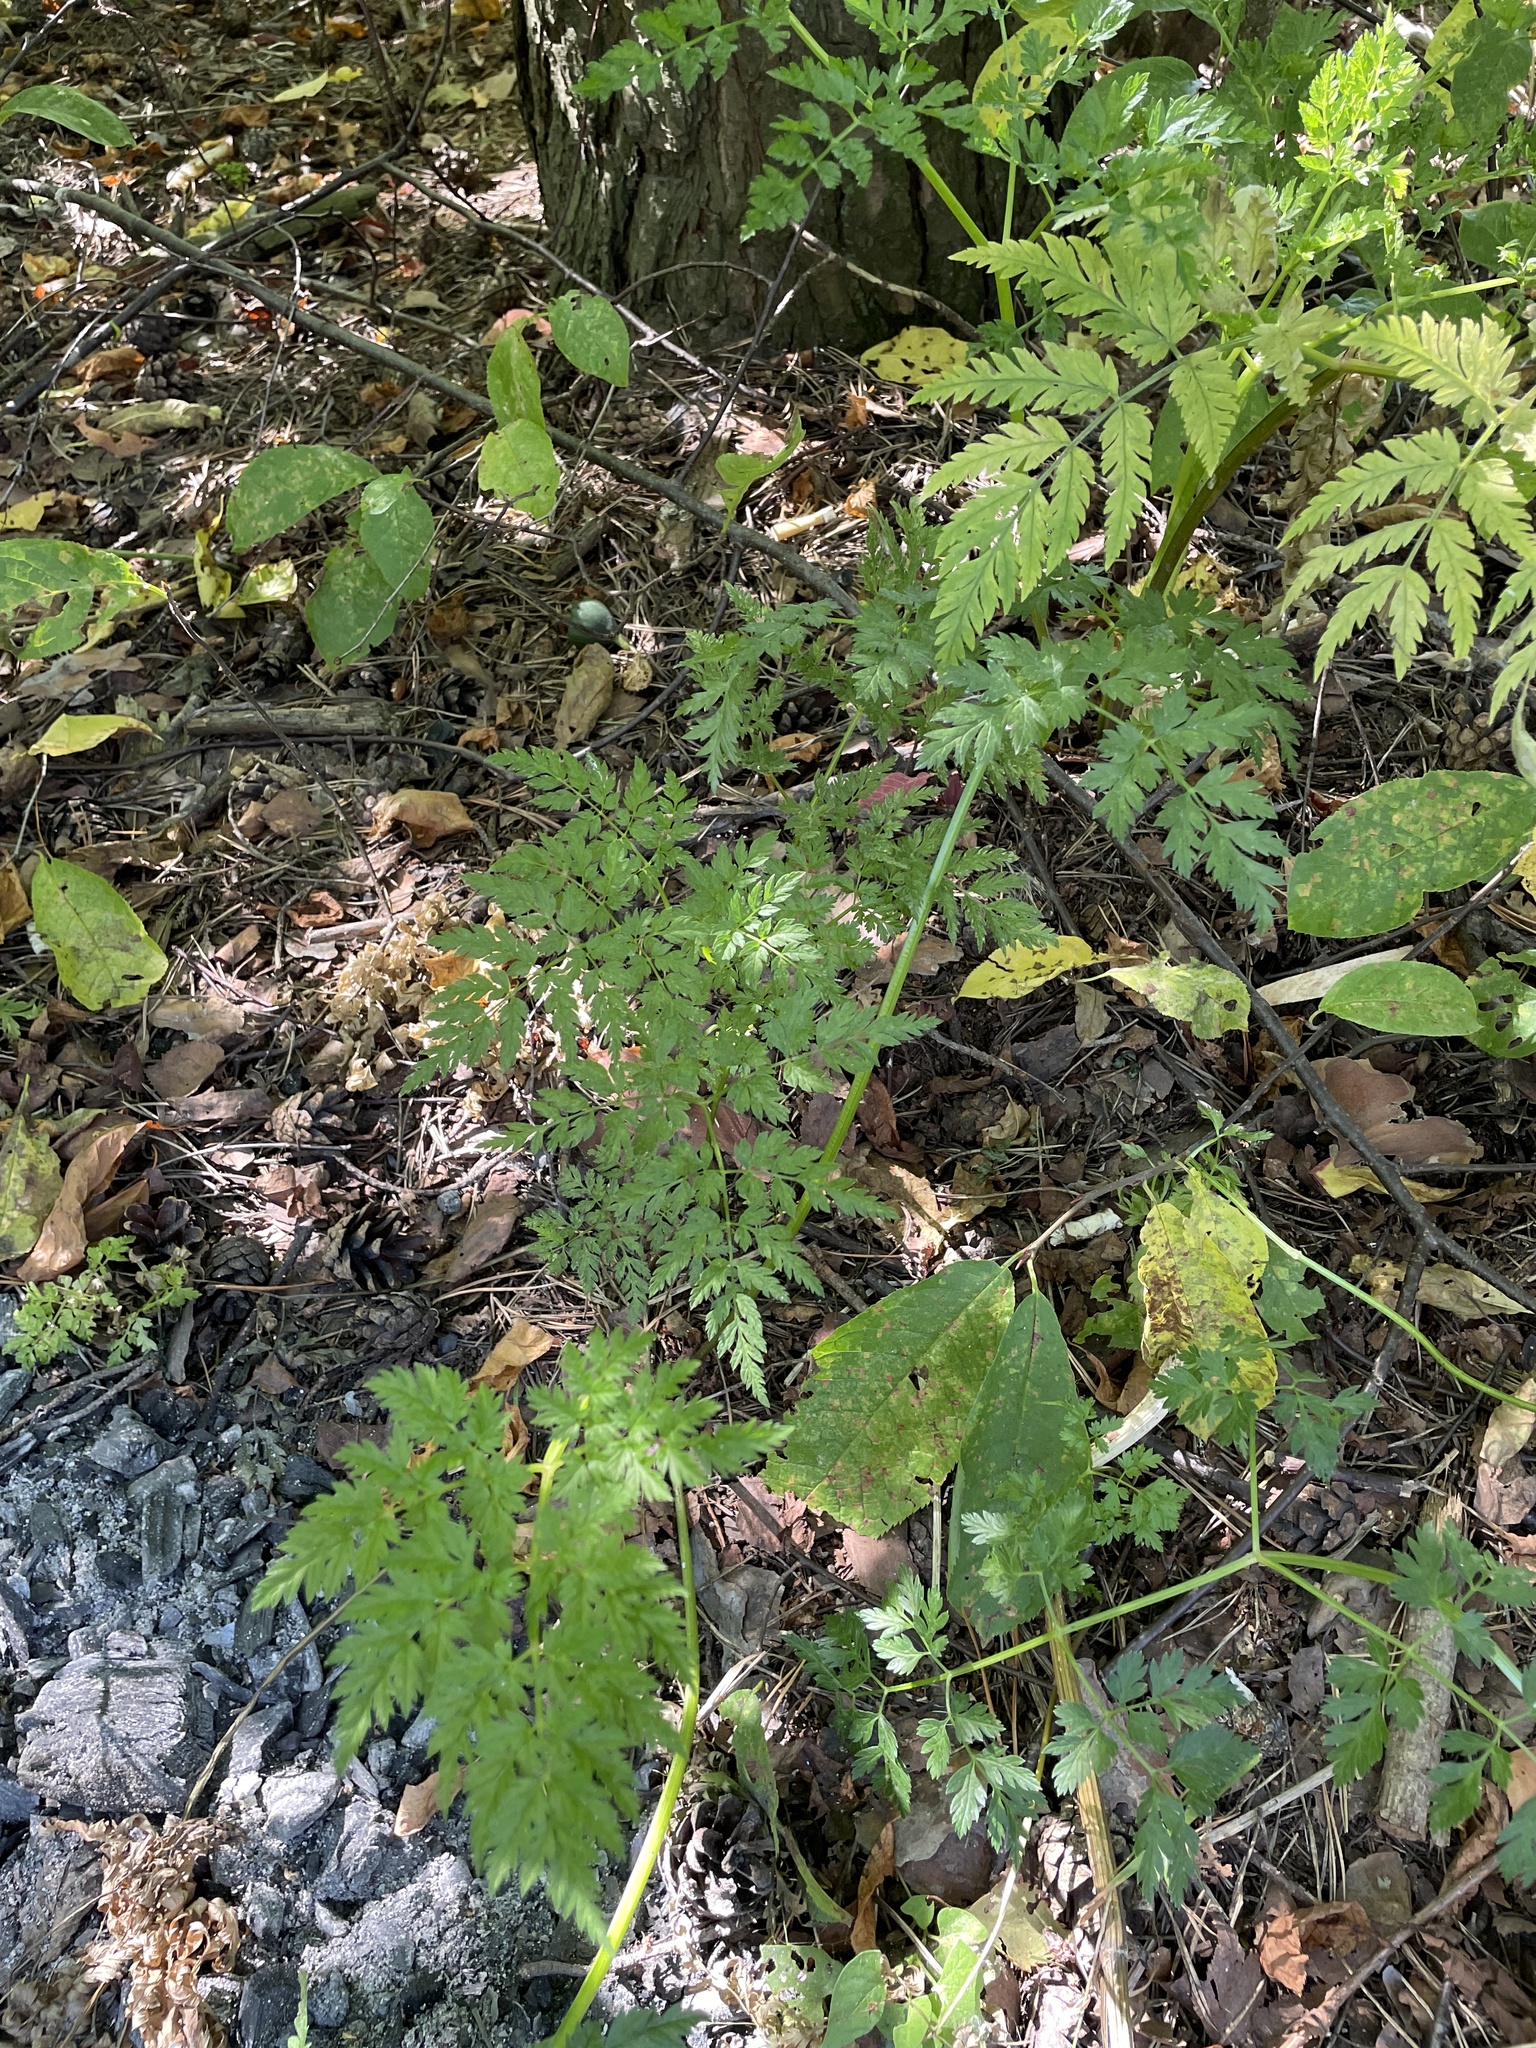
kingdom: Plantae
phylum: Tracheophyta
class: Magnoliopsida
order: Apiales
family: Apiaceae
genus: Anthriscus
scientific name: Anthriscus sylvestris
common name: Cow parsley
